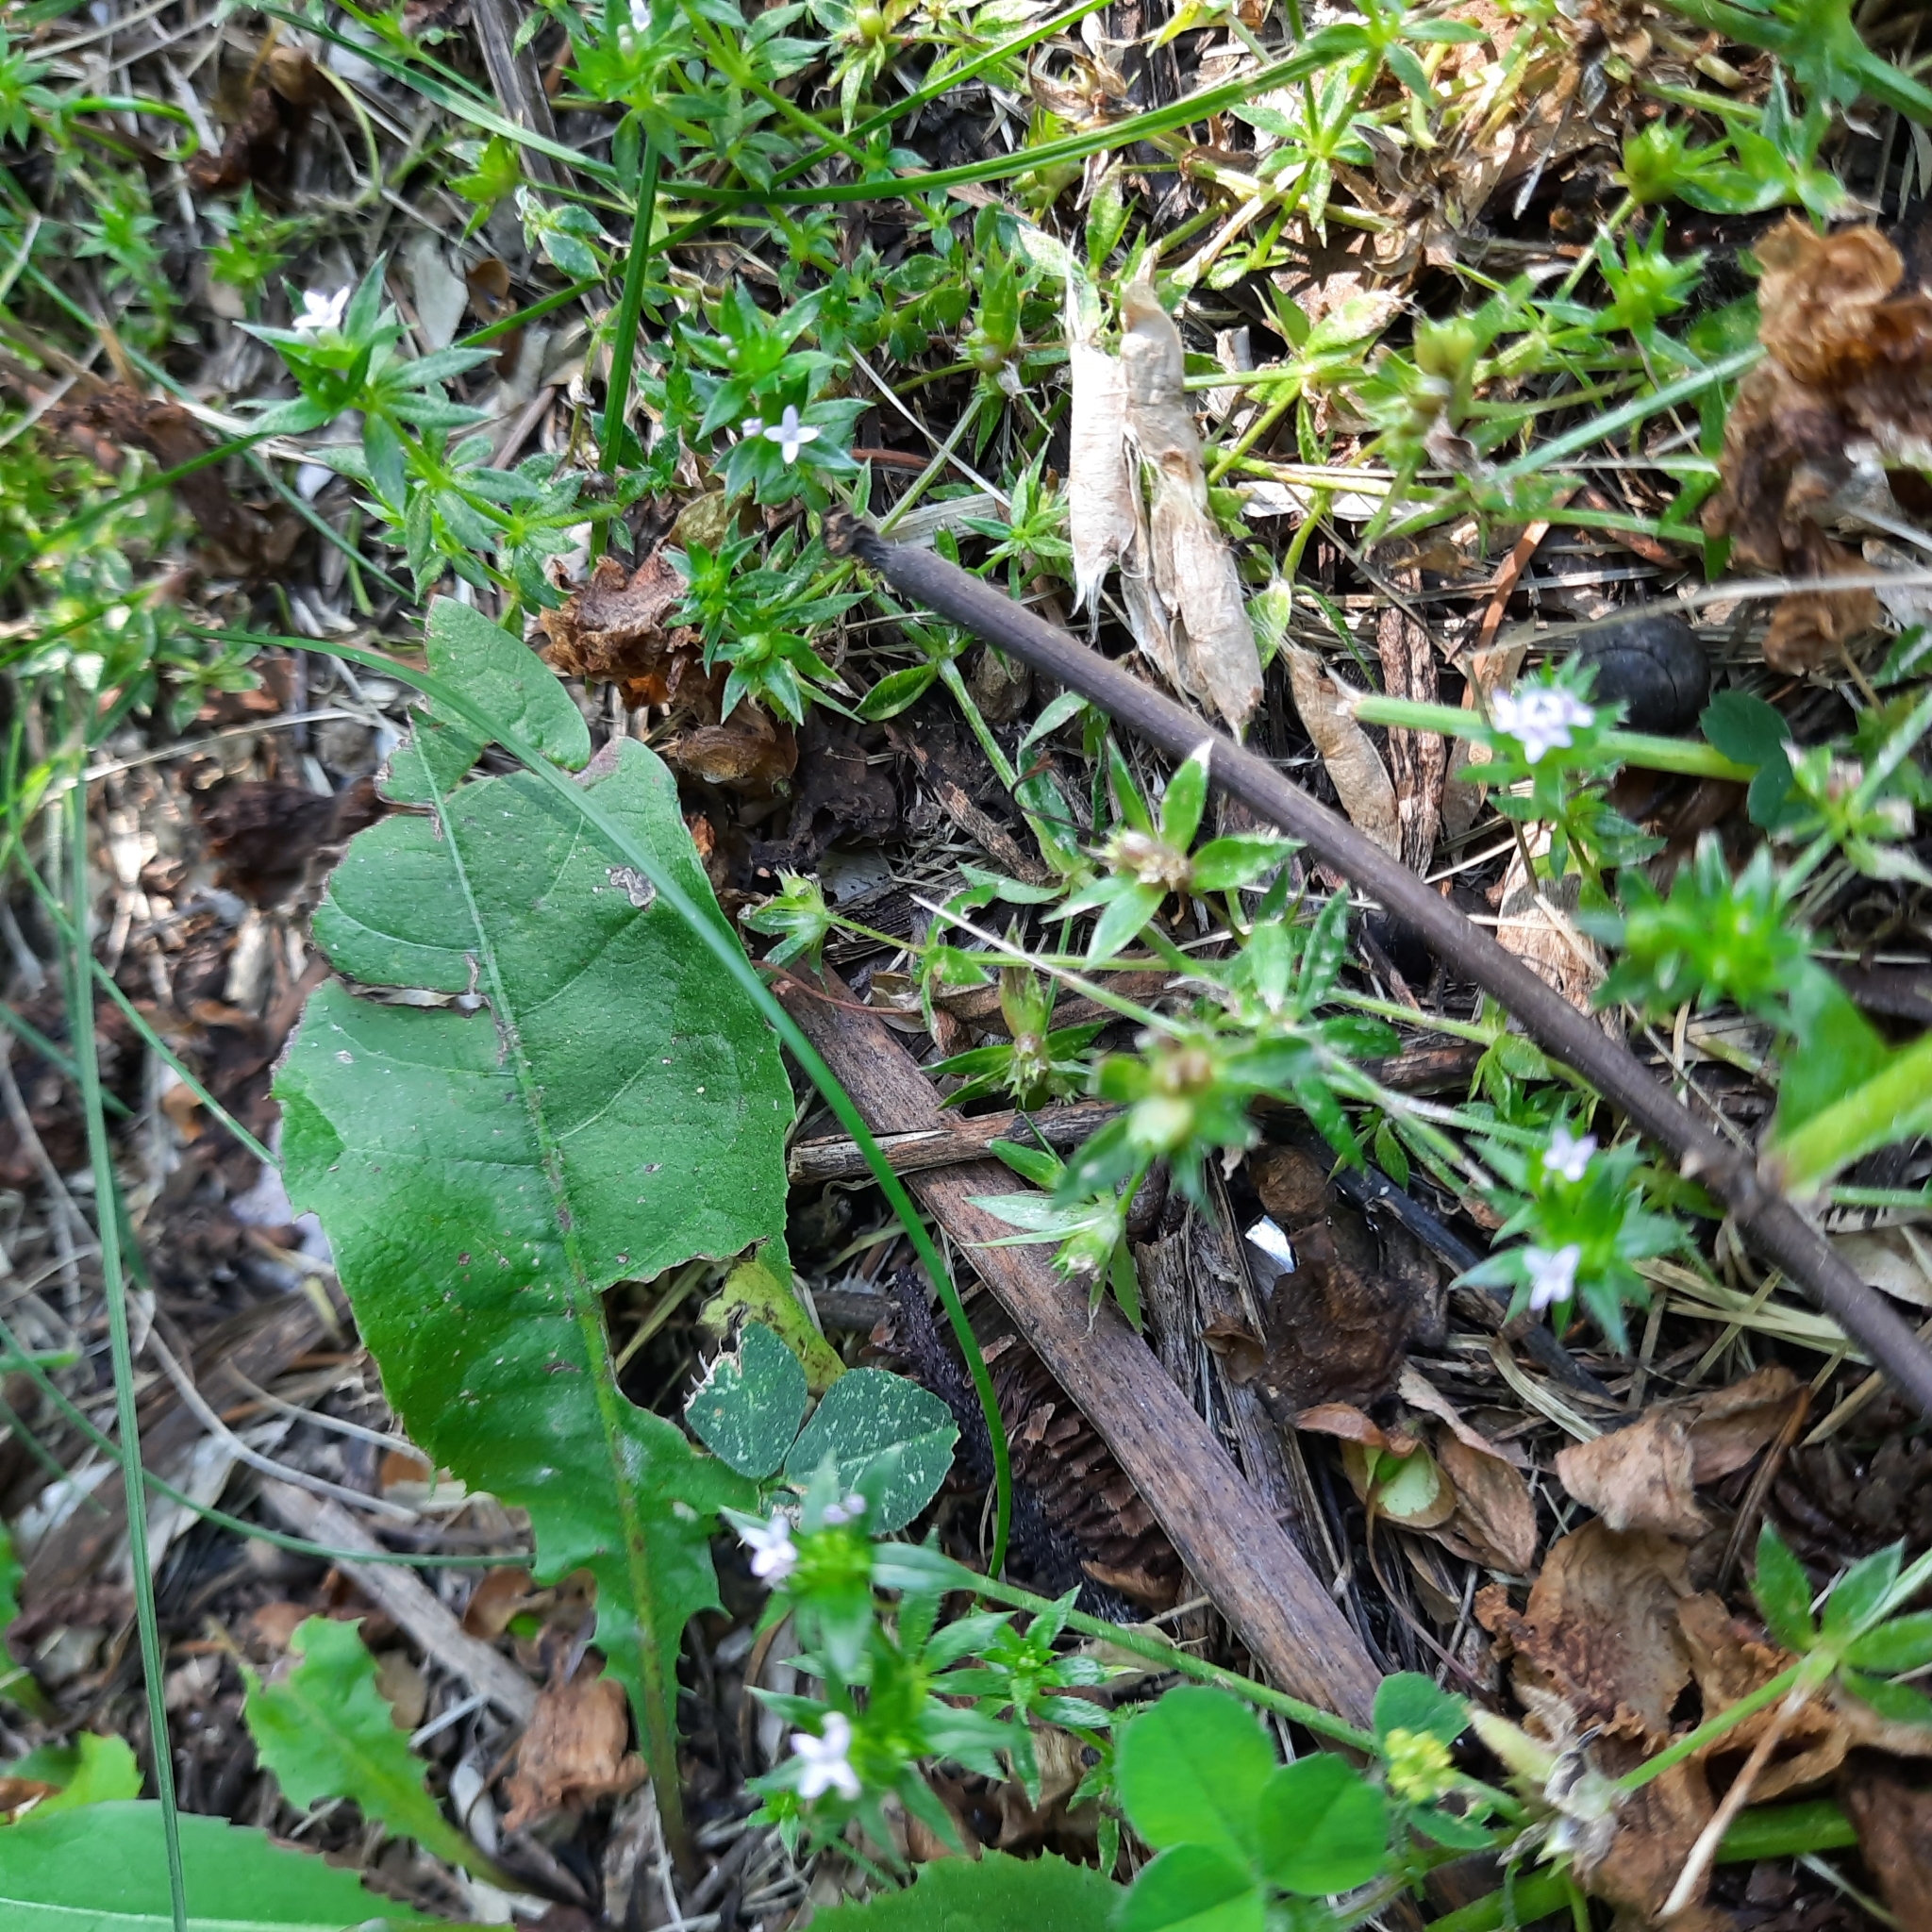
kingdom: Plantae
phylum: Tracheophyta
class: Magnoliopsida
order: Gentianales
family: Rubiaceae
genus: Sherardia
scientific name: Sherardia arvensis
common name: Field madder
